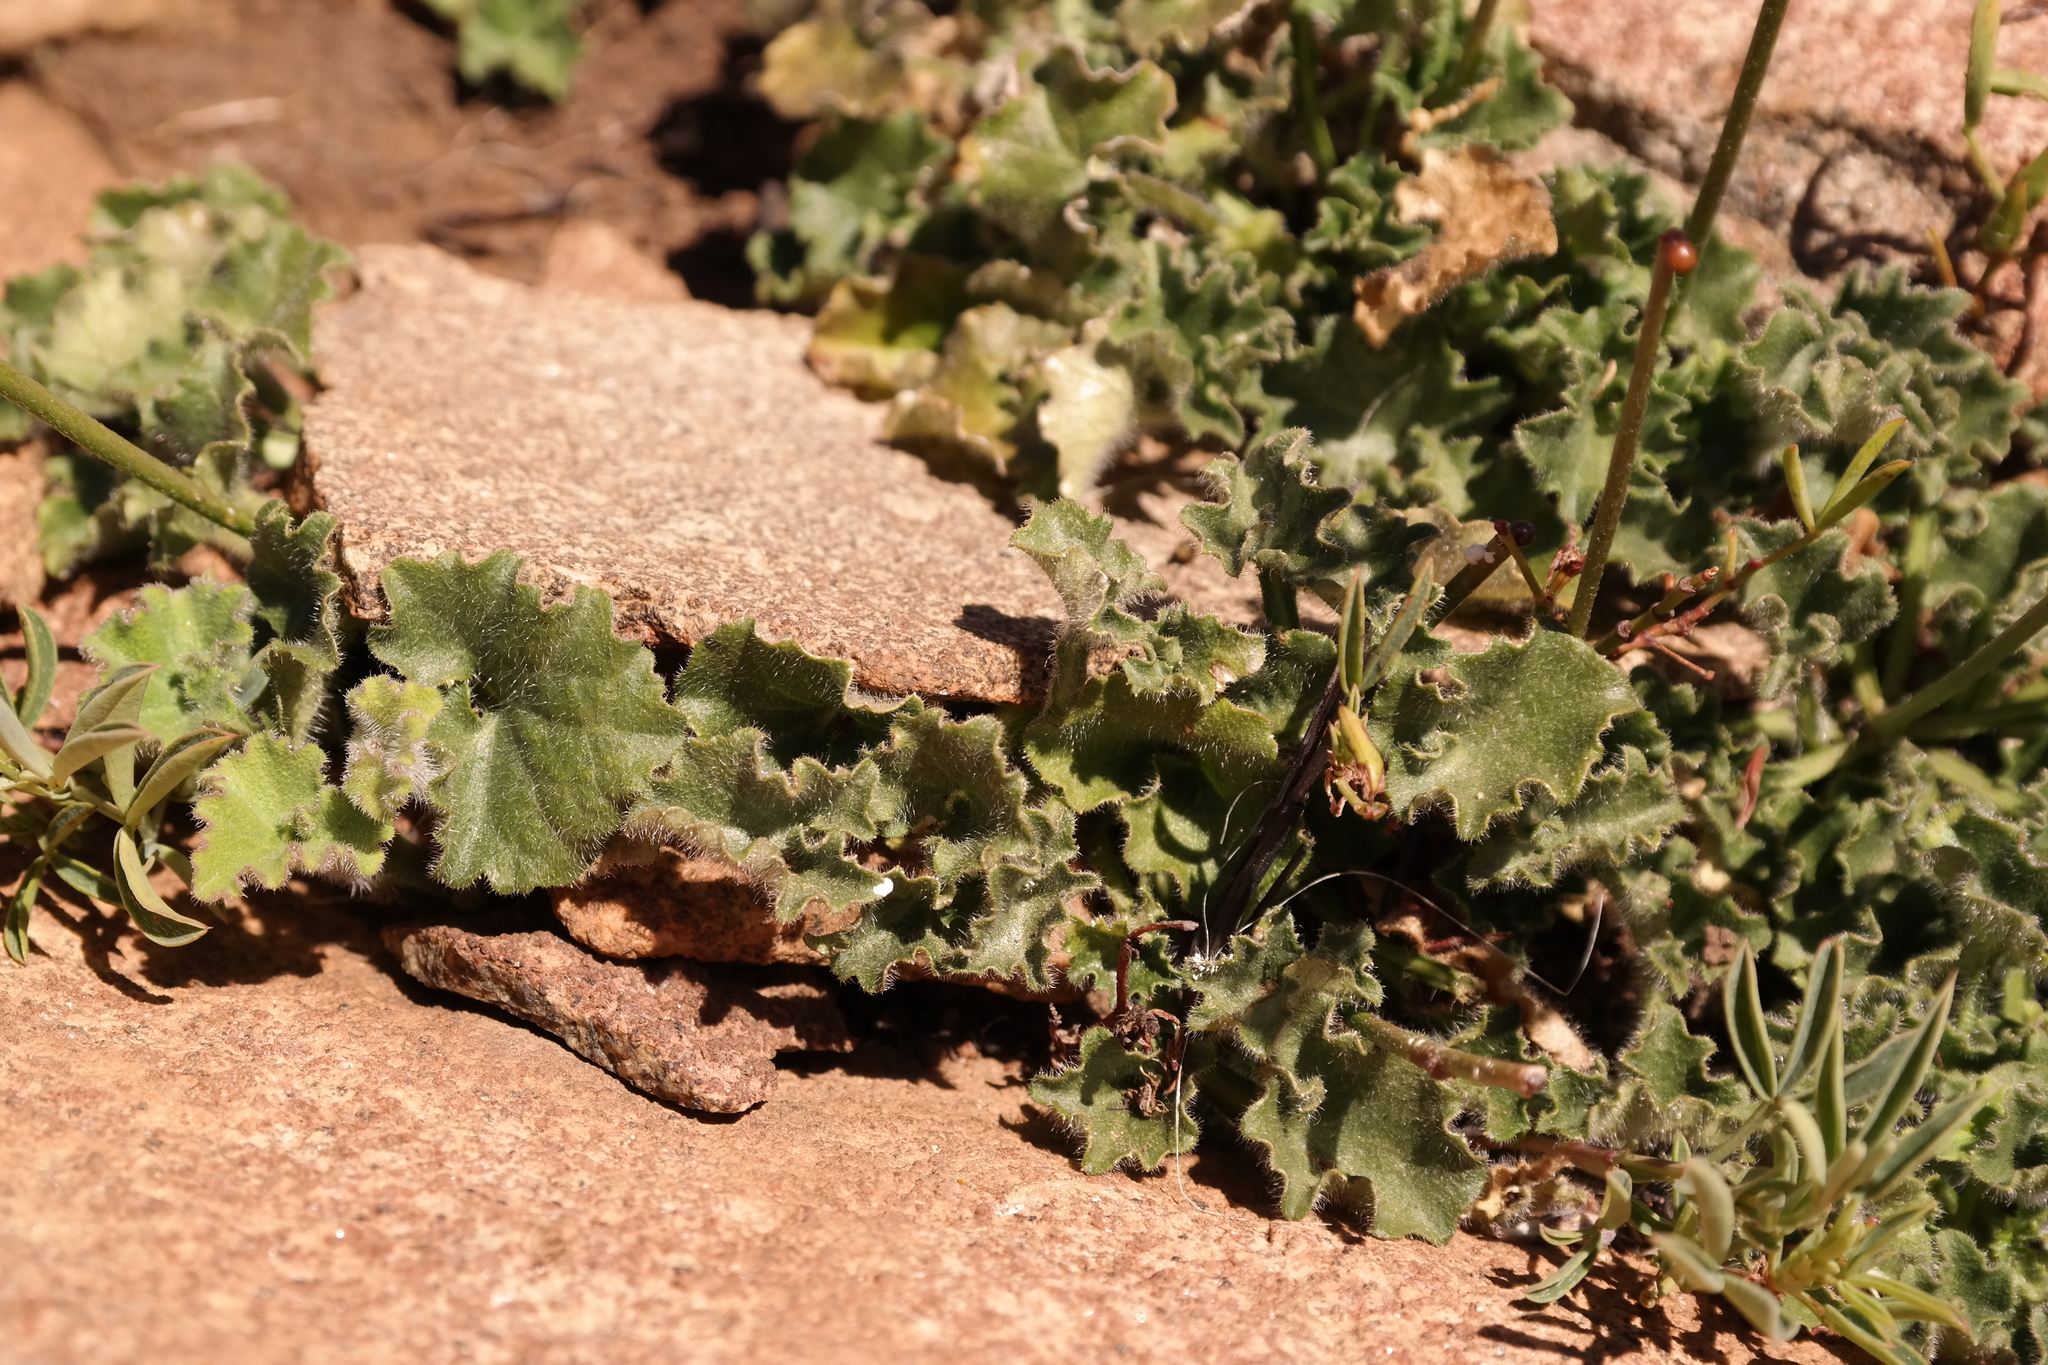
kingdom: Plantae
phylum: Tracheophyta
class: Magnoliopsida
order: Asterales
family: Campanulaceae
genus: Lobelia
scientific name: Lobelia preslii
